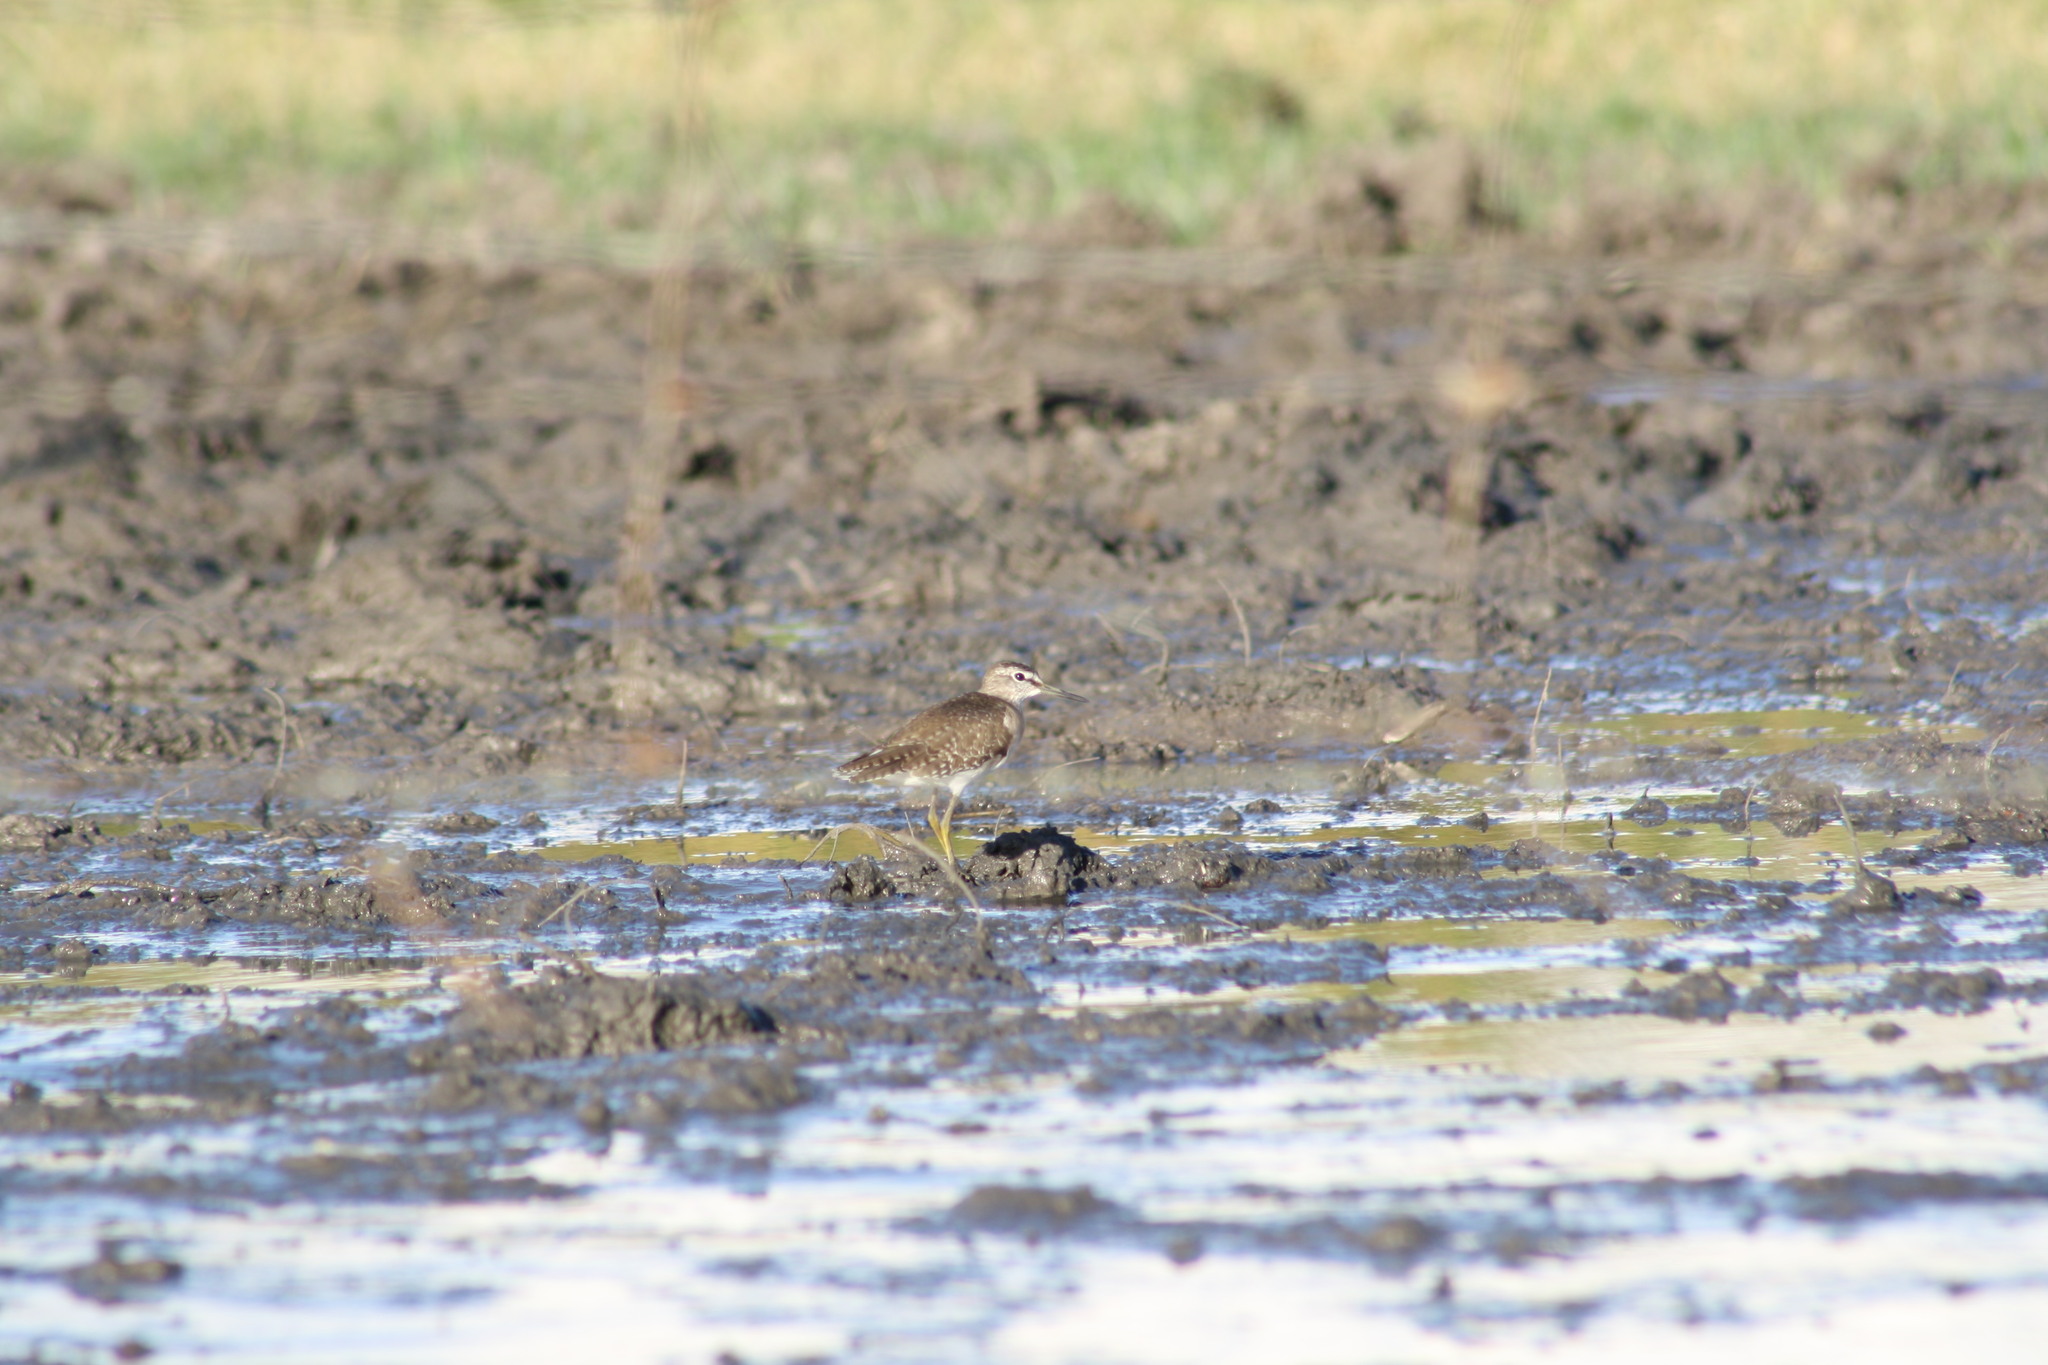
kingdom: Animalia
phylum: Chordata
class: Aves
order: Charadriiformes
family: Scolopacidae
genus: Tringa
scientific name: Tringa glareola
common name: Wood sandpiper
